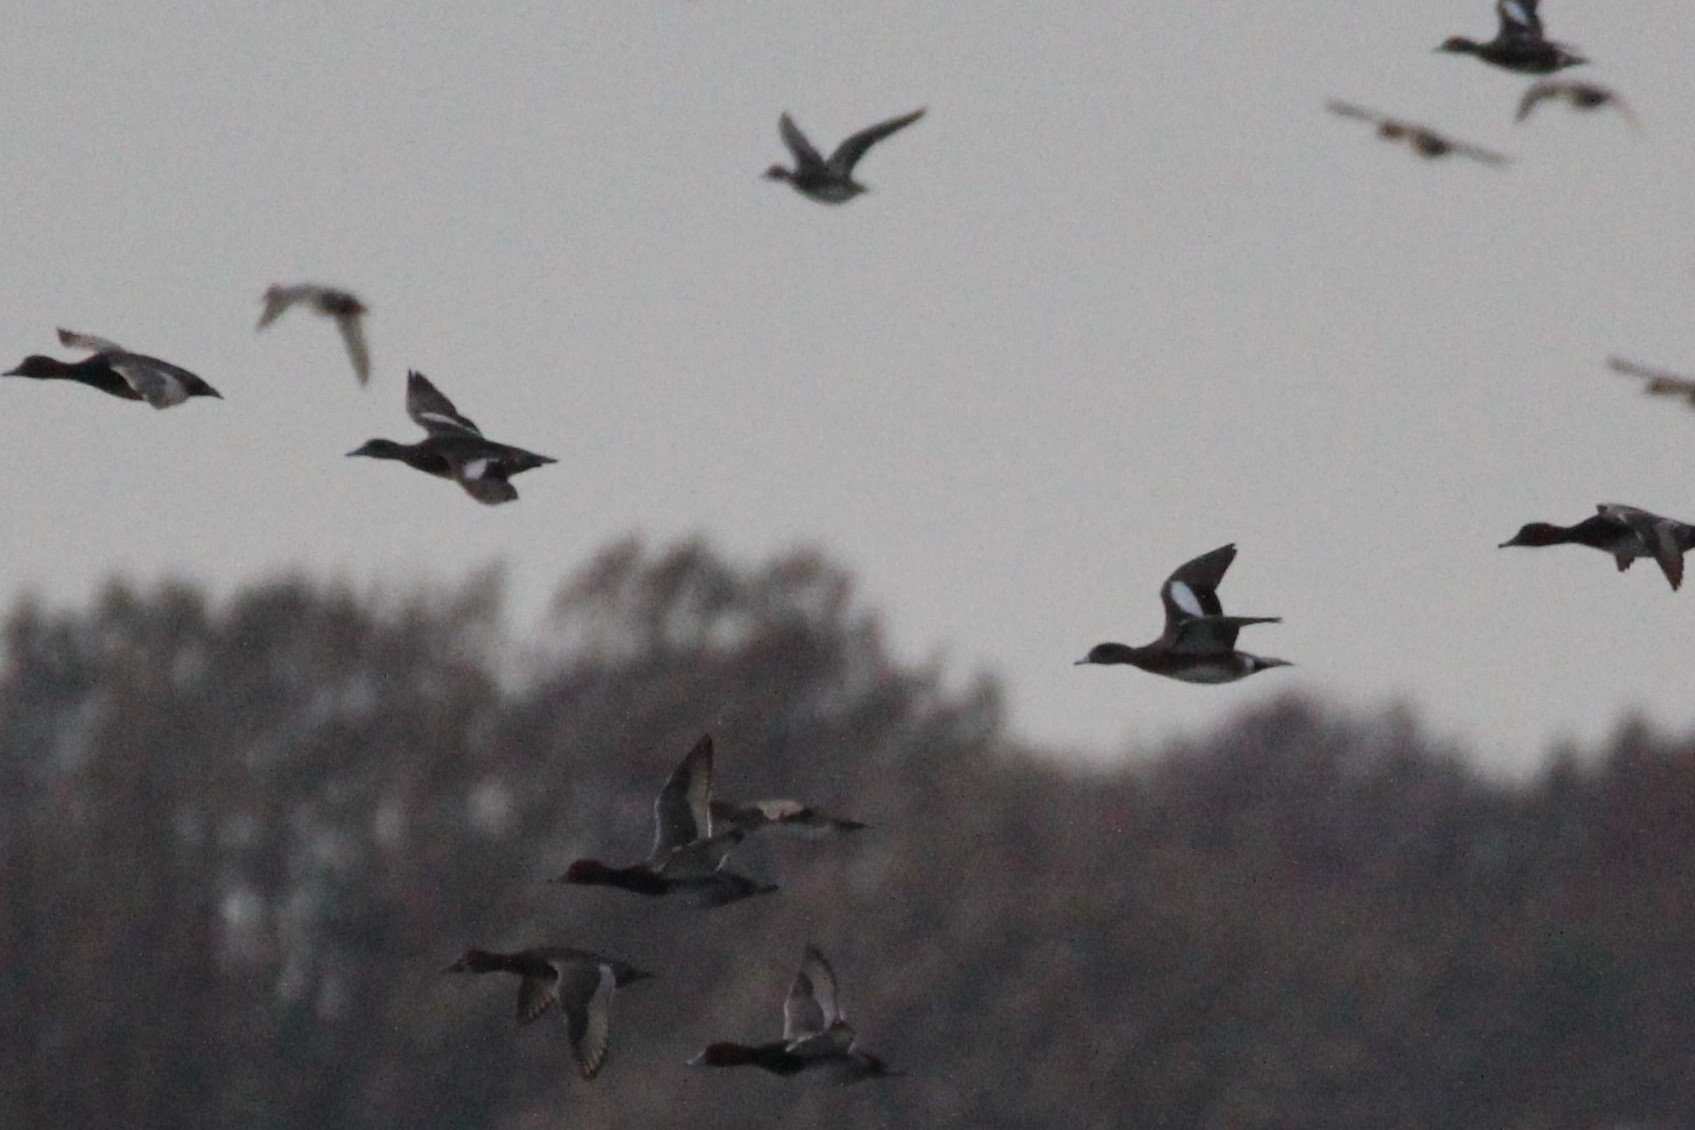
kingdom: Animalia
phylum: Chordata
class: Aves
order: Anseriformes
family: Anatidae
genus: Mareca
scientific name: Mareca americana
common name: American wigeon
